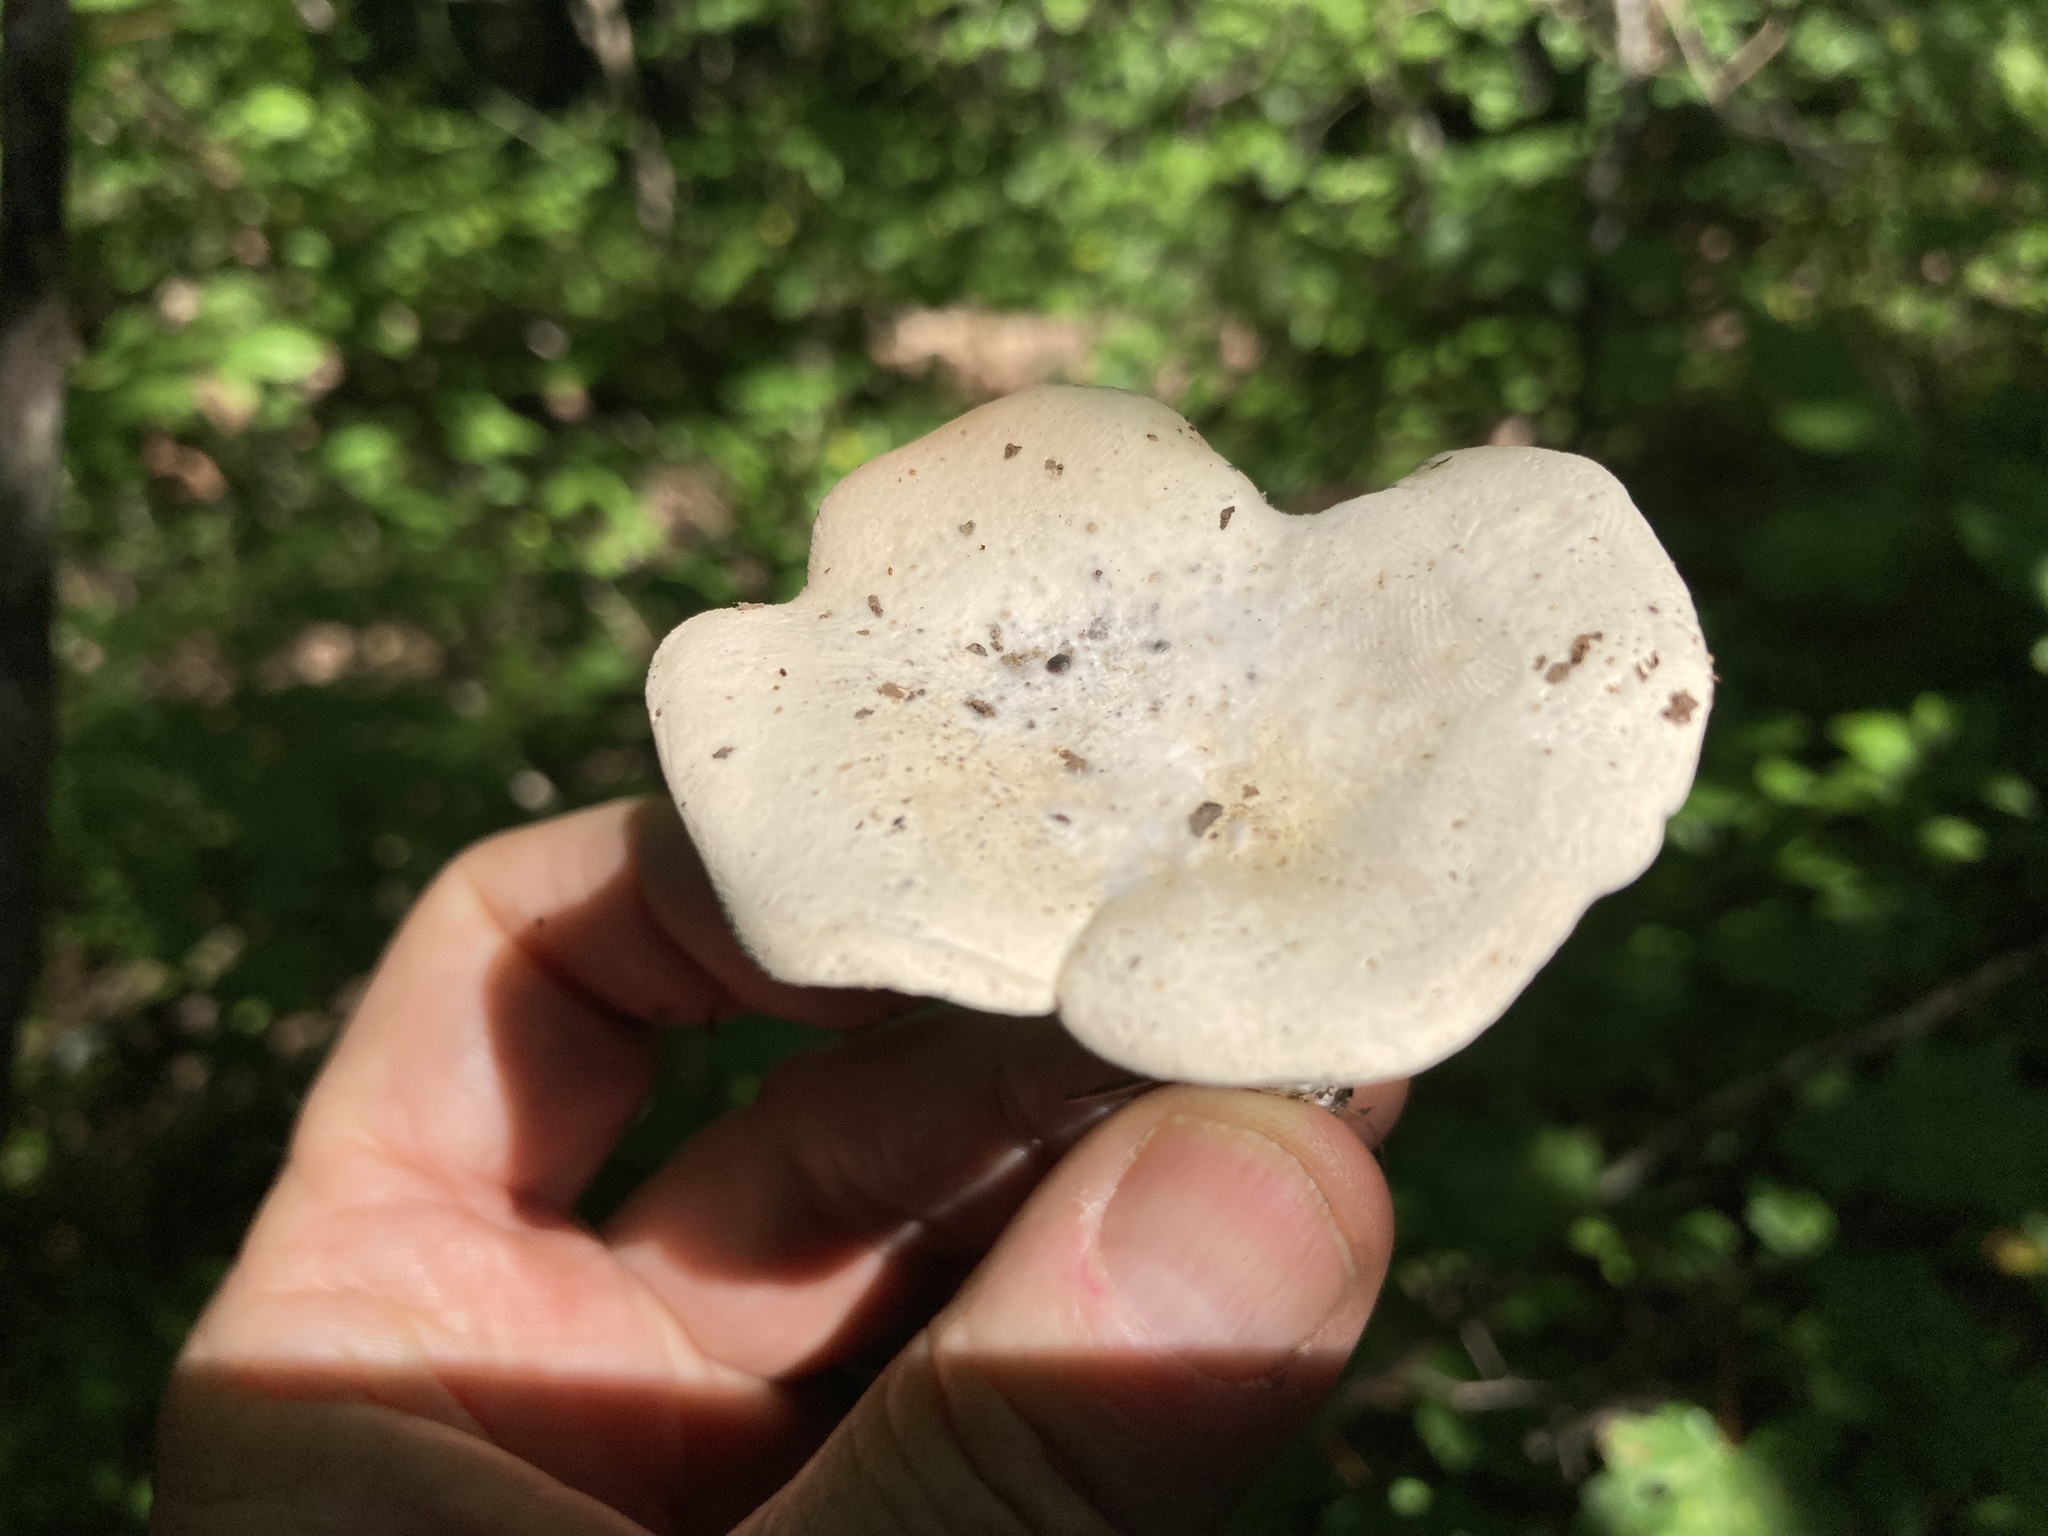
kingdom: Fungi
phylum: Basidiomycota
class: Agaricomycetes
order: Agaricales
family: Entolomataceae
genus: Clitopilus
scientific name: Clitopilus prunulus
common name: The miller
